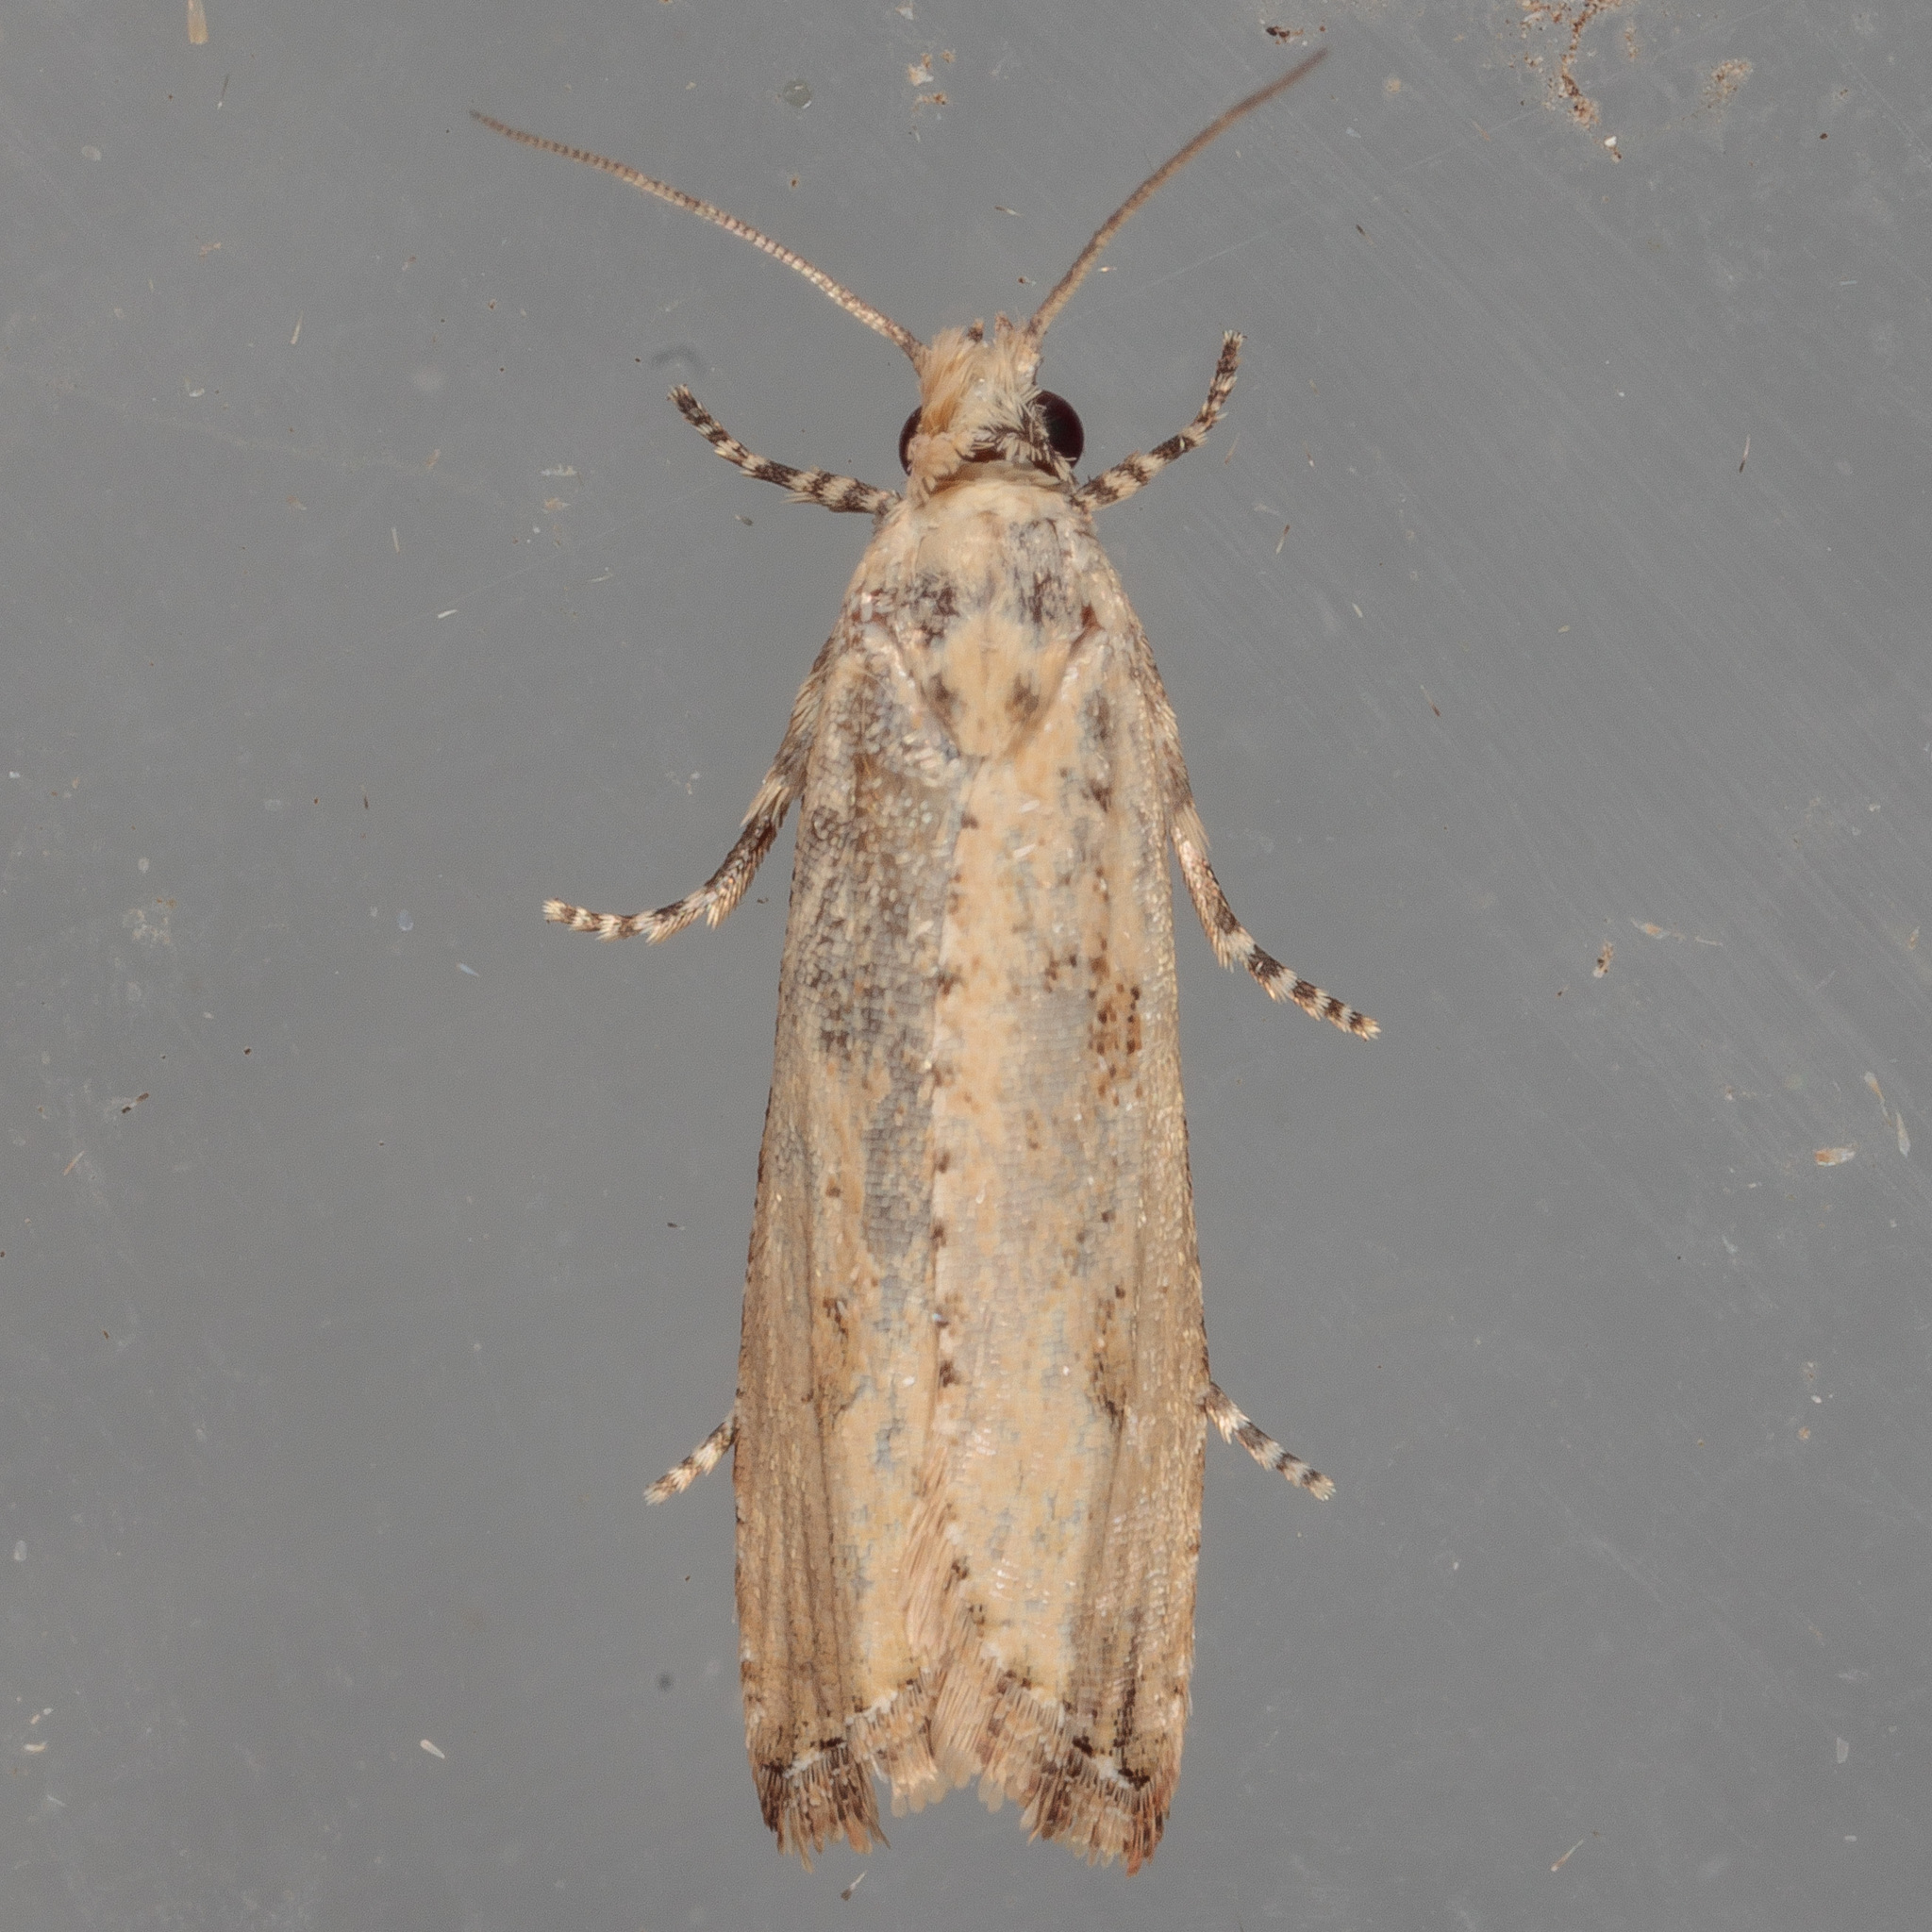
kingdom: Animalia
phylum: Arthropoda
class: Insecta
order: Lepidoptera
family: Tortricidae
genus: Bactra
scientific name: Bactra verutana
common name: Javelin moth
